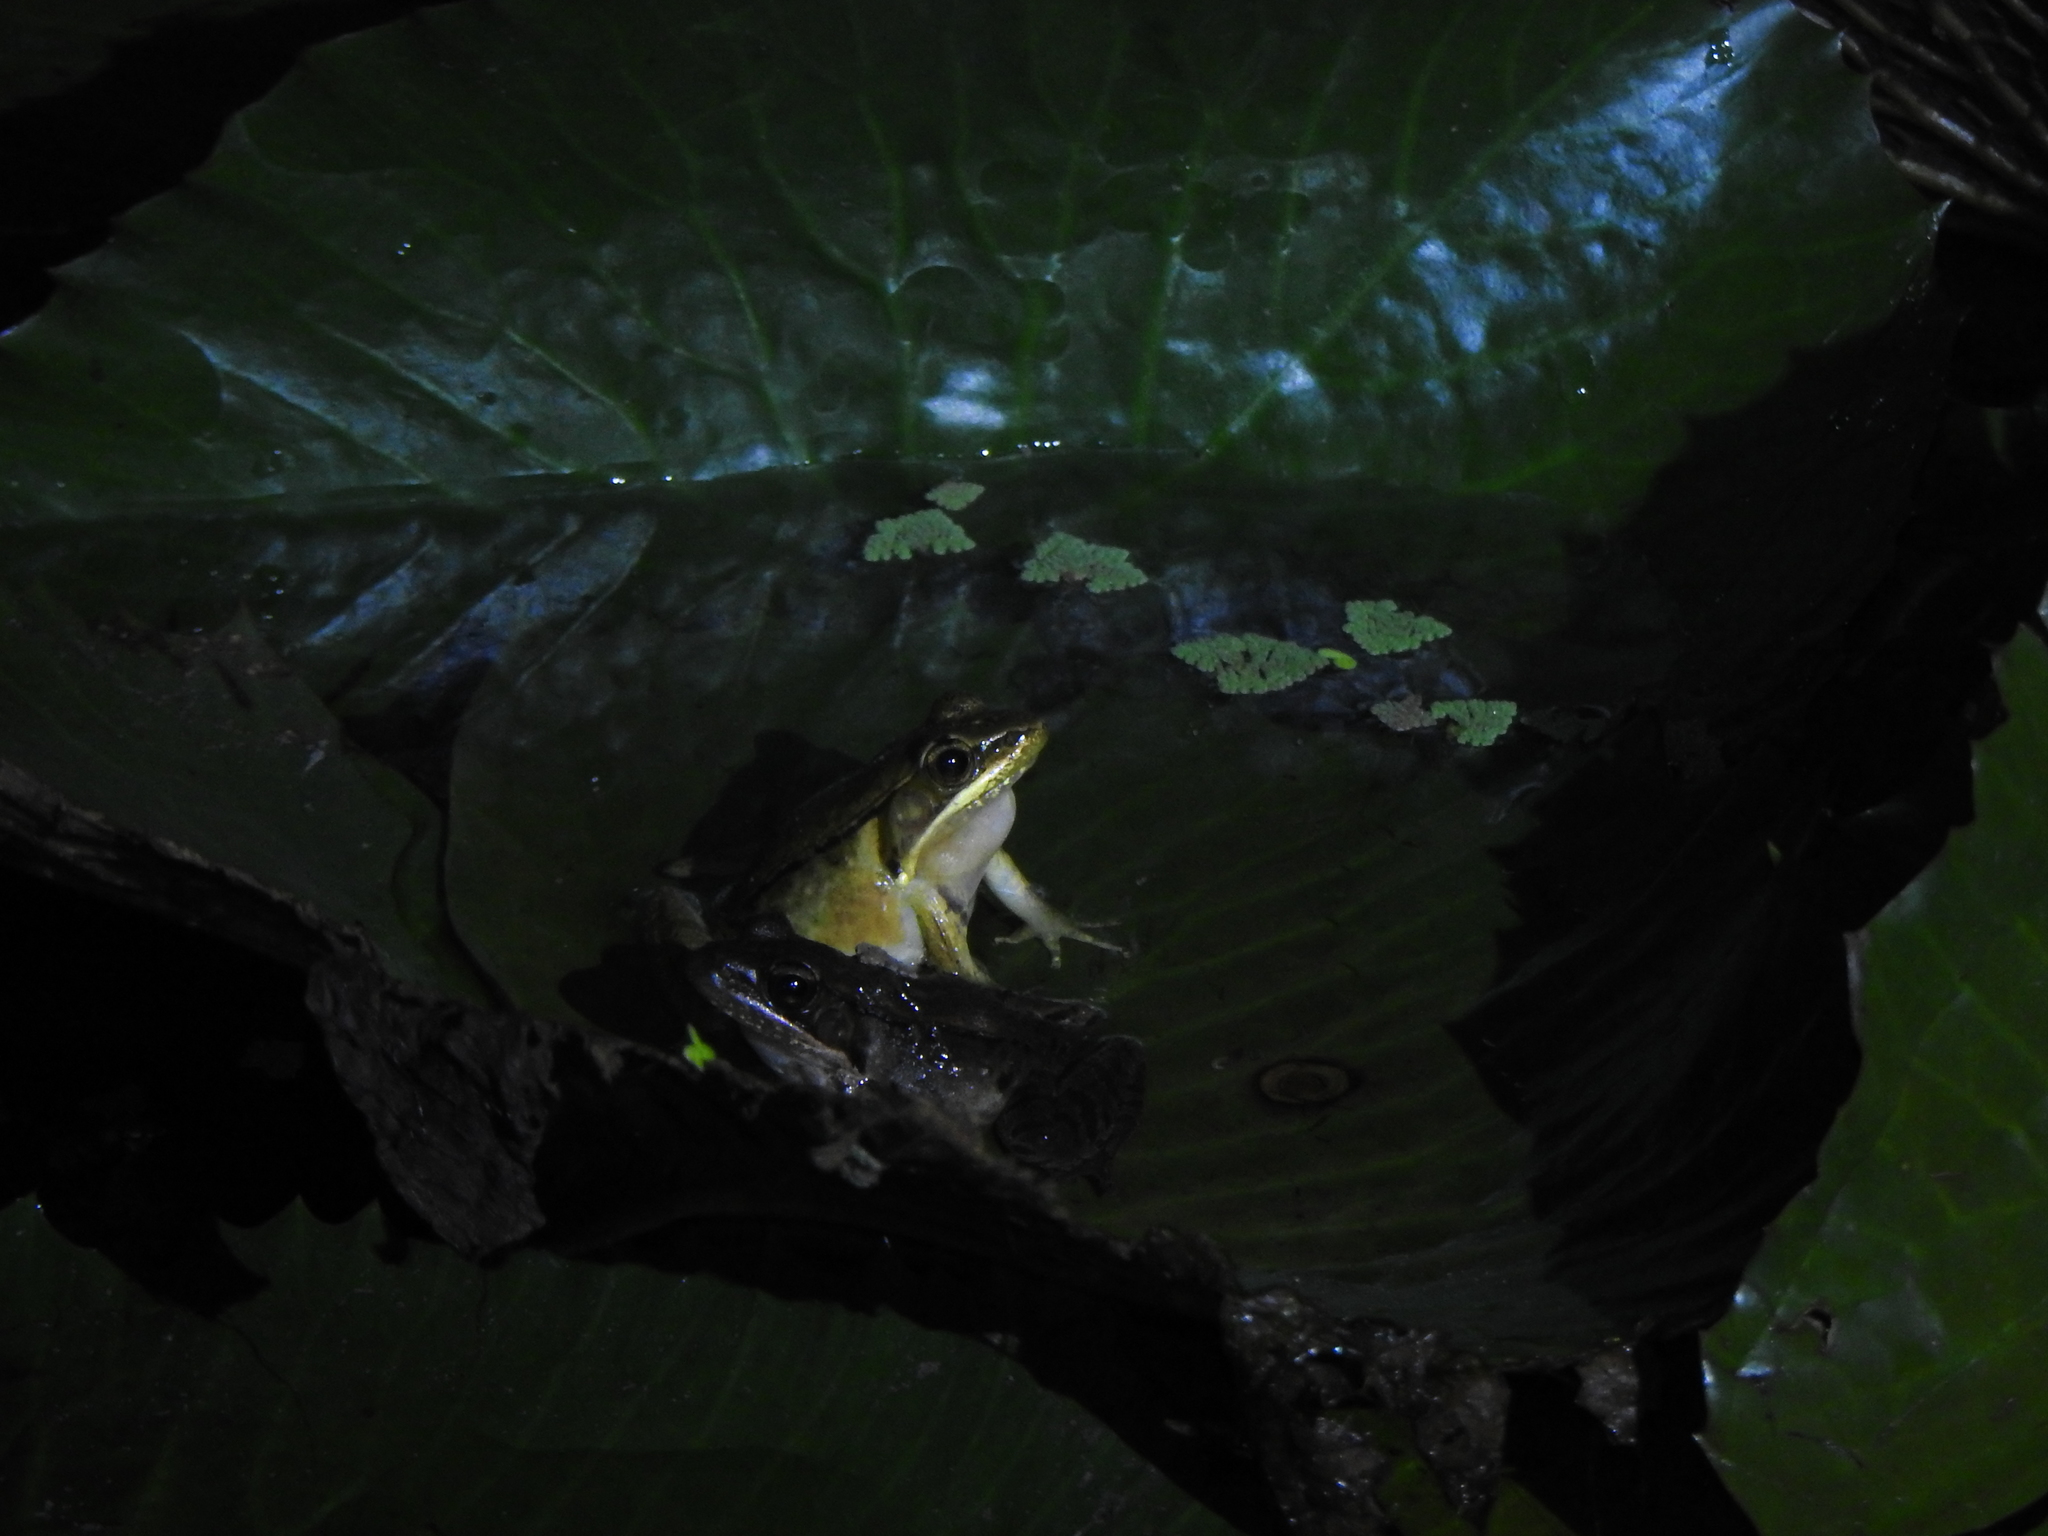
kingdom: Animalia
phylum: Chordata
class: Amphibia
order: Anura
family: Ranidae
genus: Nidirana
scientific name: Nidirana adenopleura
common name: Olive frog
